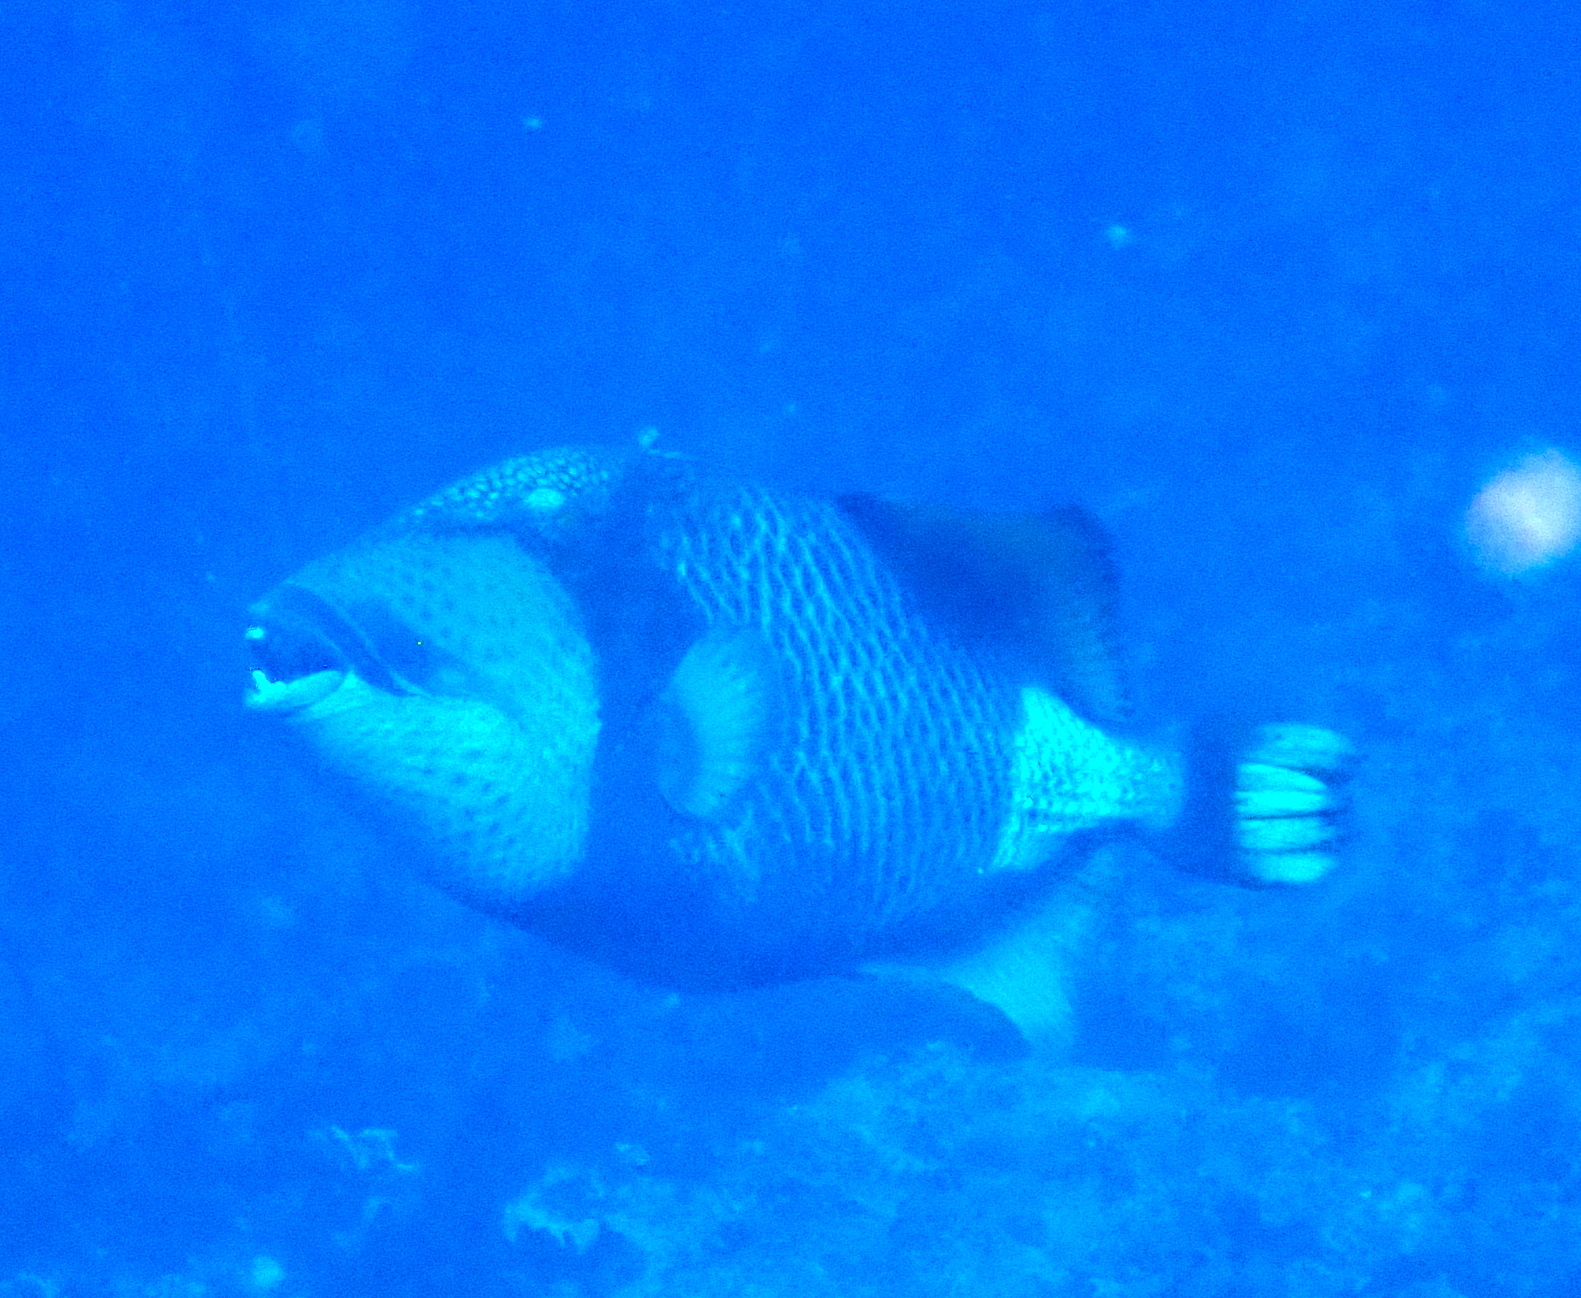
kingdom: Animalia
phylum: Chordata
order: Tetraodontiformes
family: Balistidae
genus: Balistoides
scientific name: Balistoides viridescens
